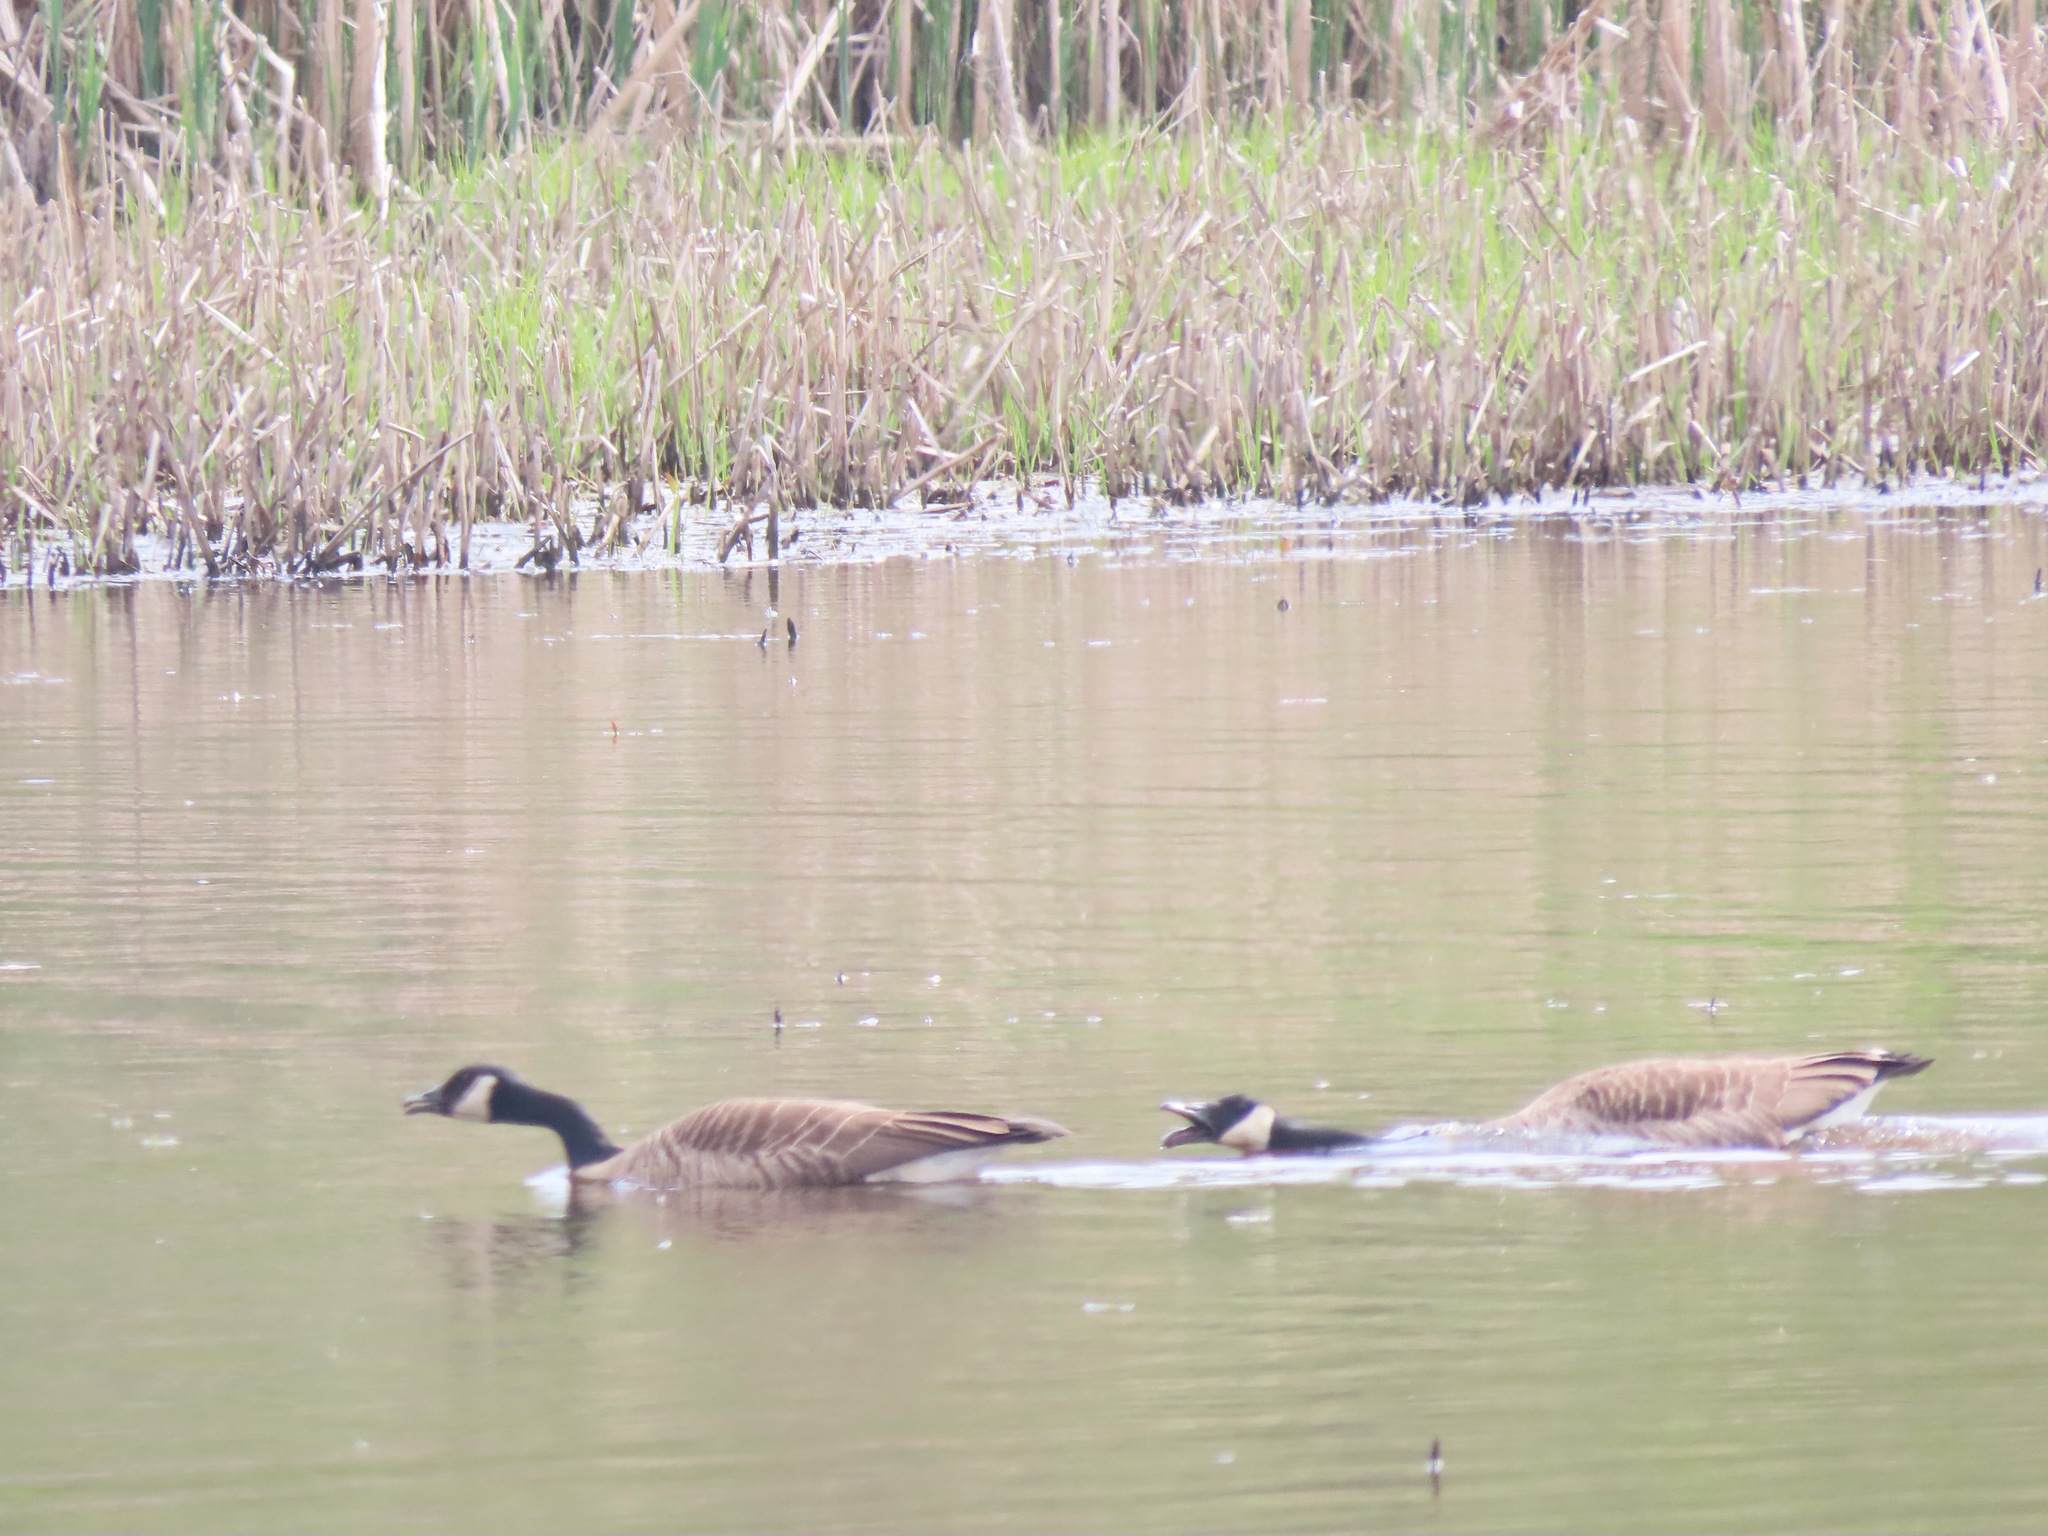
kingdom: Animalia
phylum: Chordata
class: Aves
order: Anseriformes
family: Anatidae
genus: Branta
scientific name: Branta canadensis
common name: Canada goose
